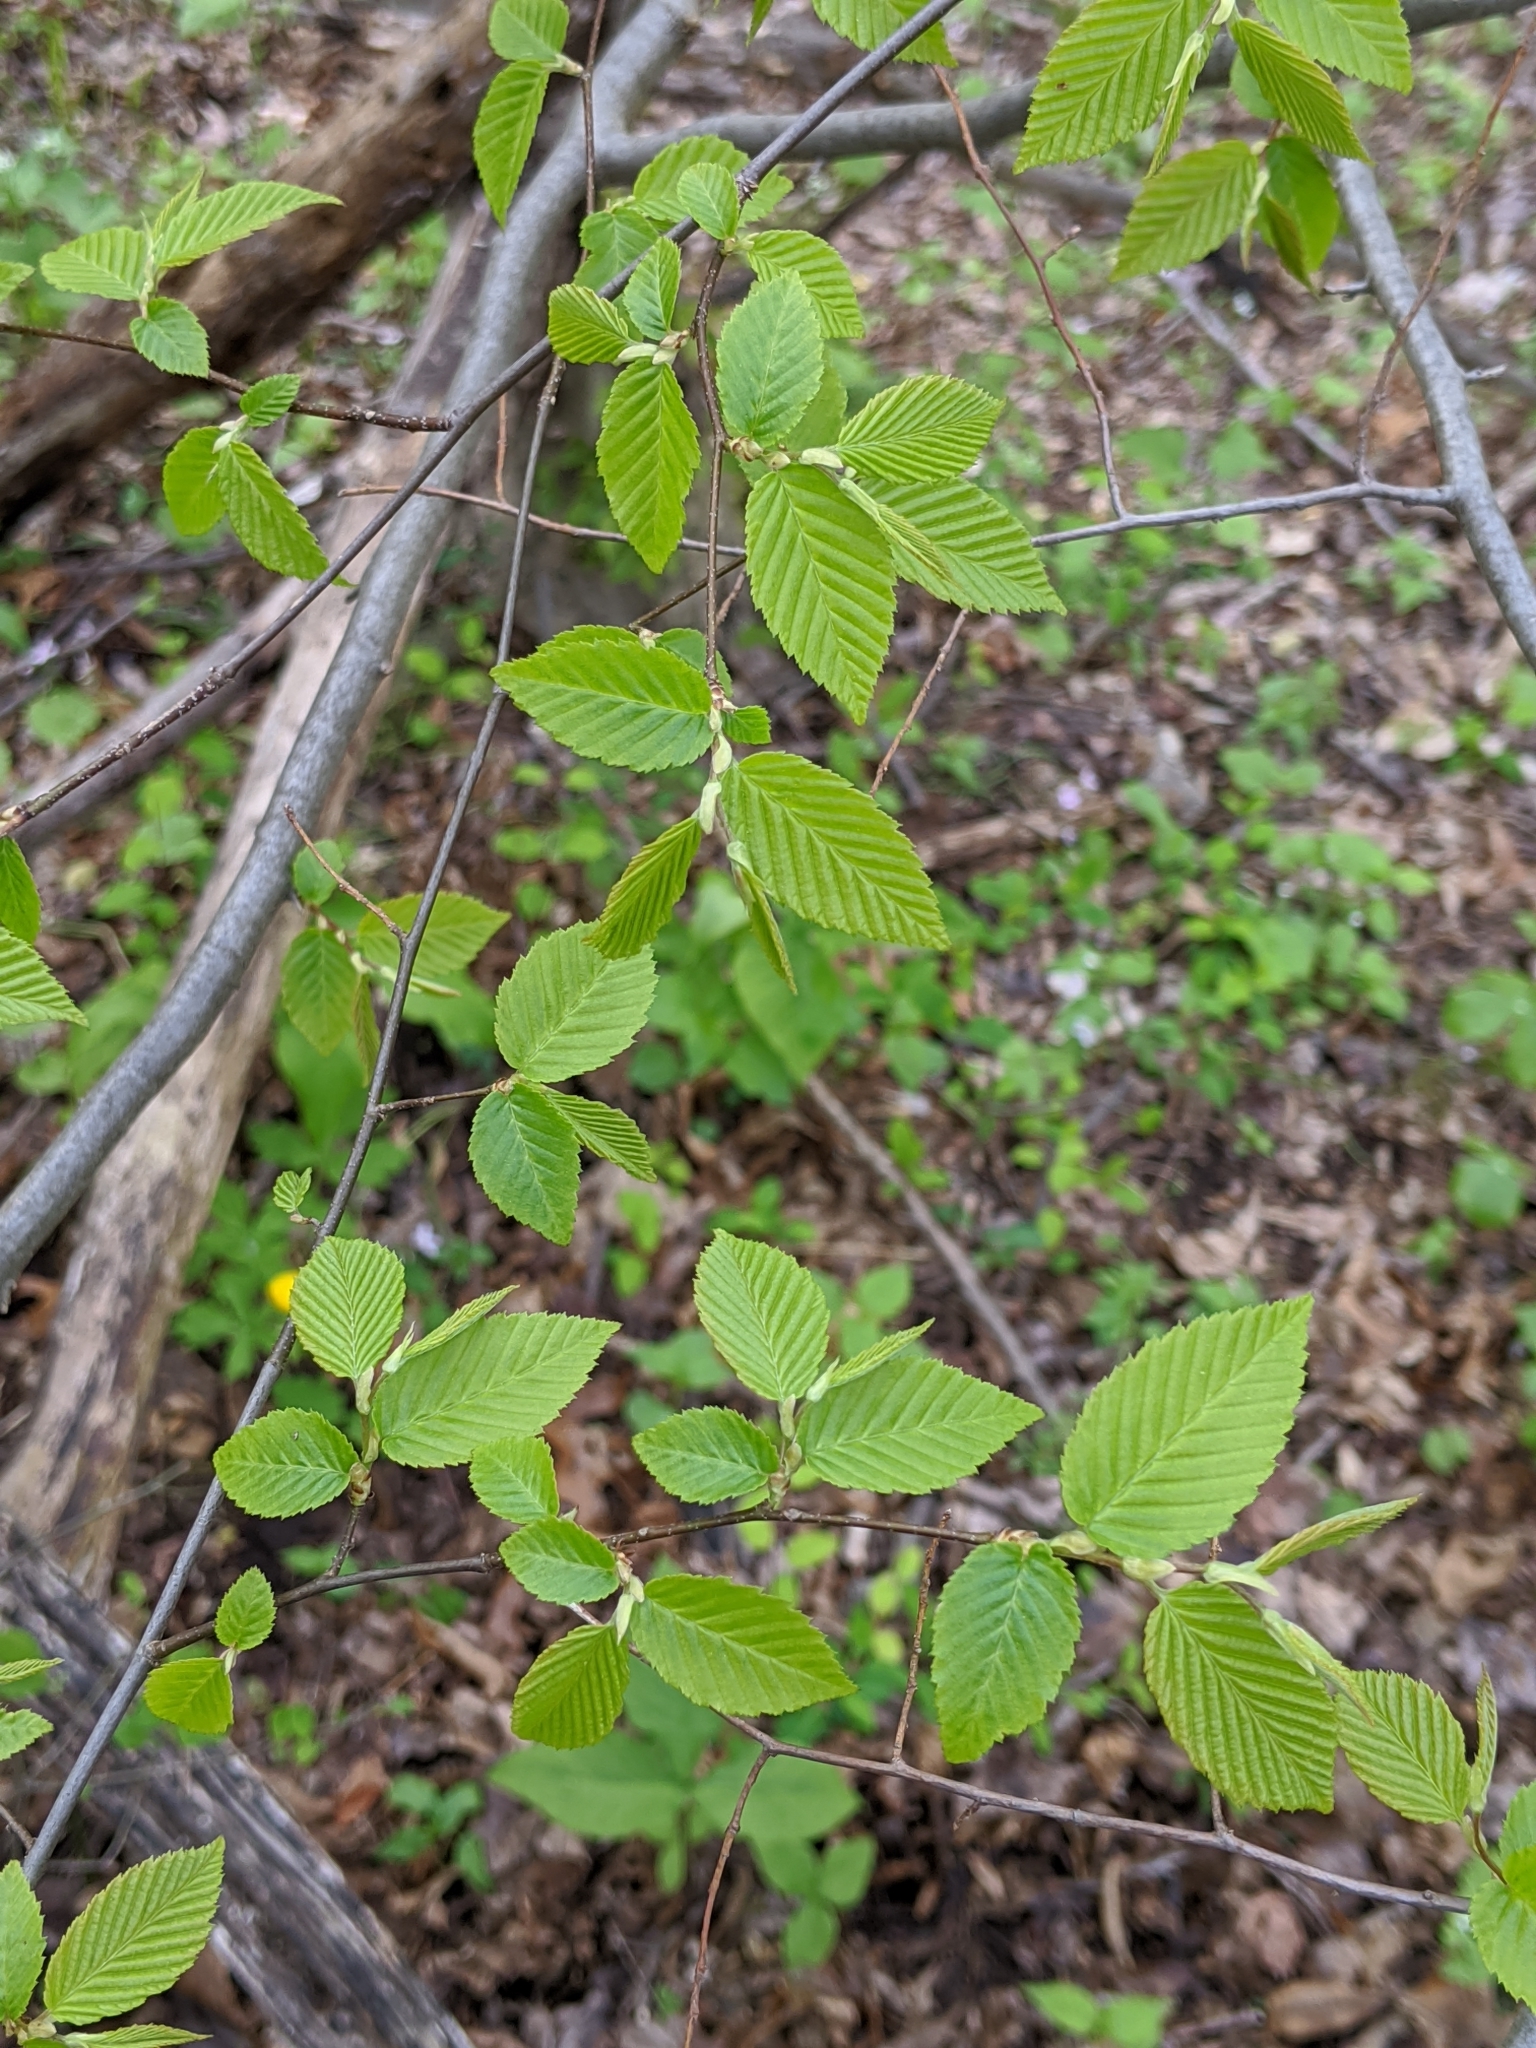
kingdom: Plantae
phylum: Tracheophyta
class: Magnoliopsida
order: Fagales
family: Betulaceae
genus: Carpinus
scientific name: Carpinus caroliniana
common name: American hornbeam
